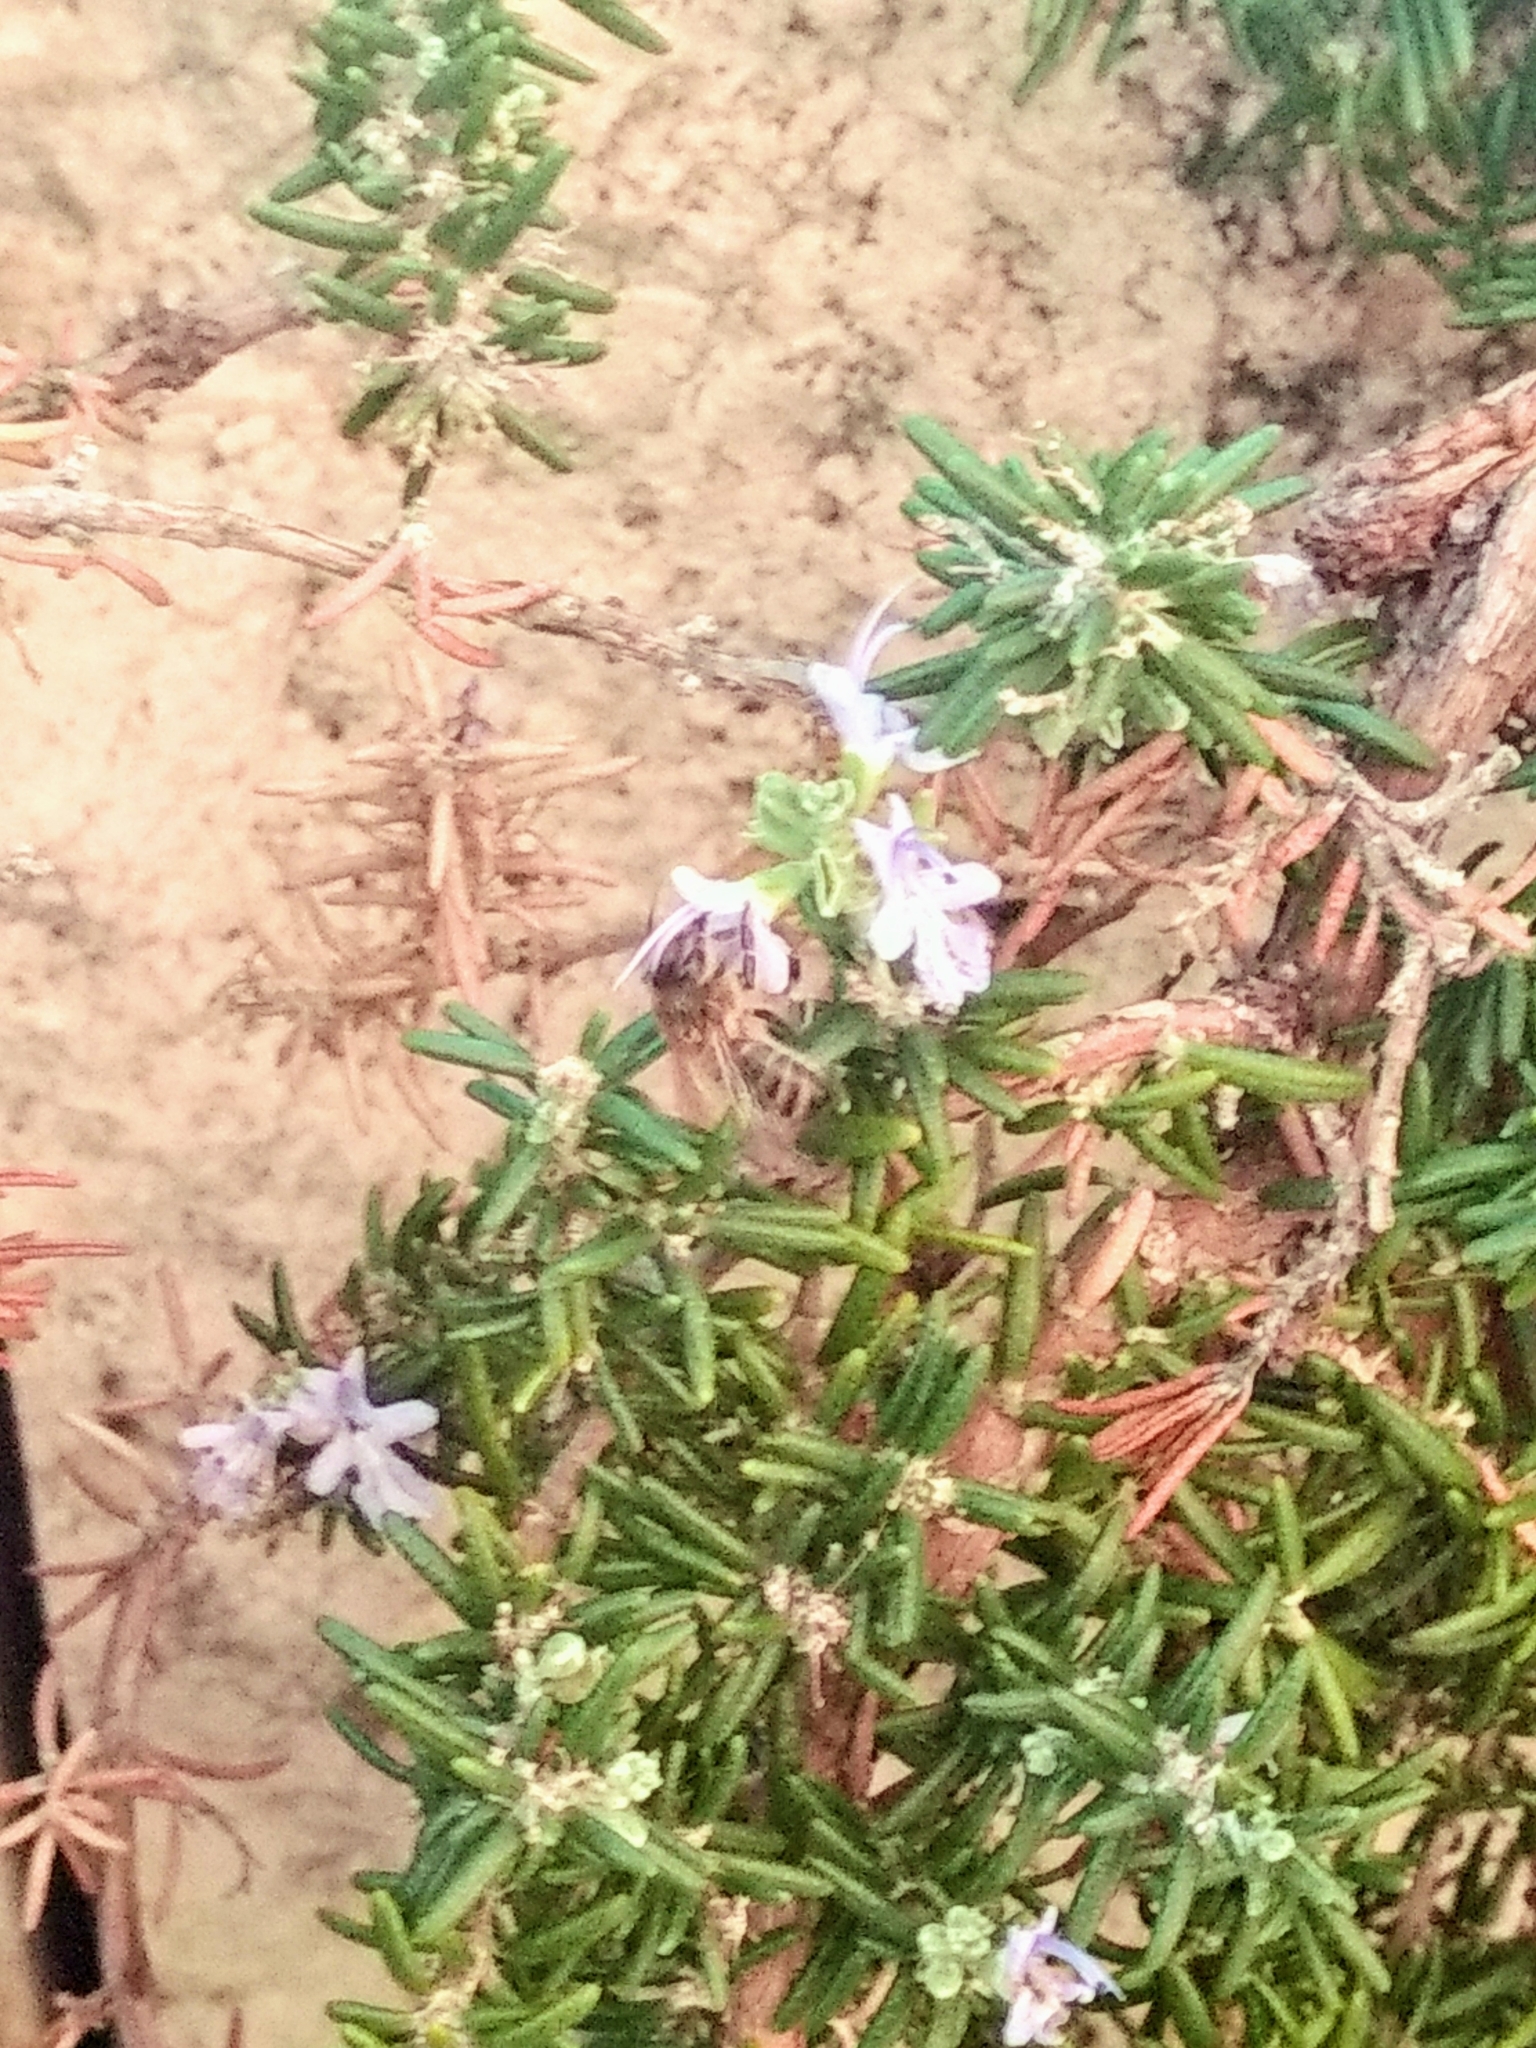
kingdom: Animalia
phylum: Arthropoda
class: Insecta
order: Hymenoptera
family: Apidae
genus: Apis
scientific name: Apis mellifera
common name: Honey bee
